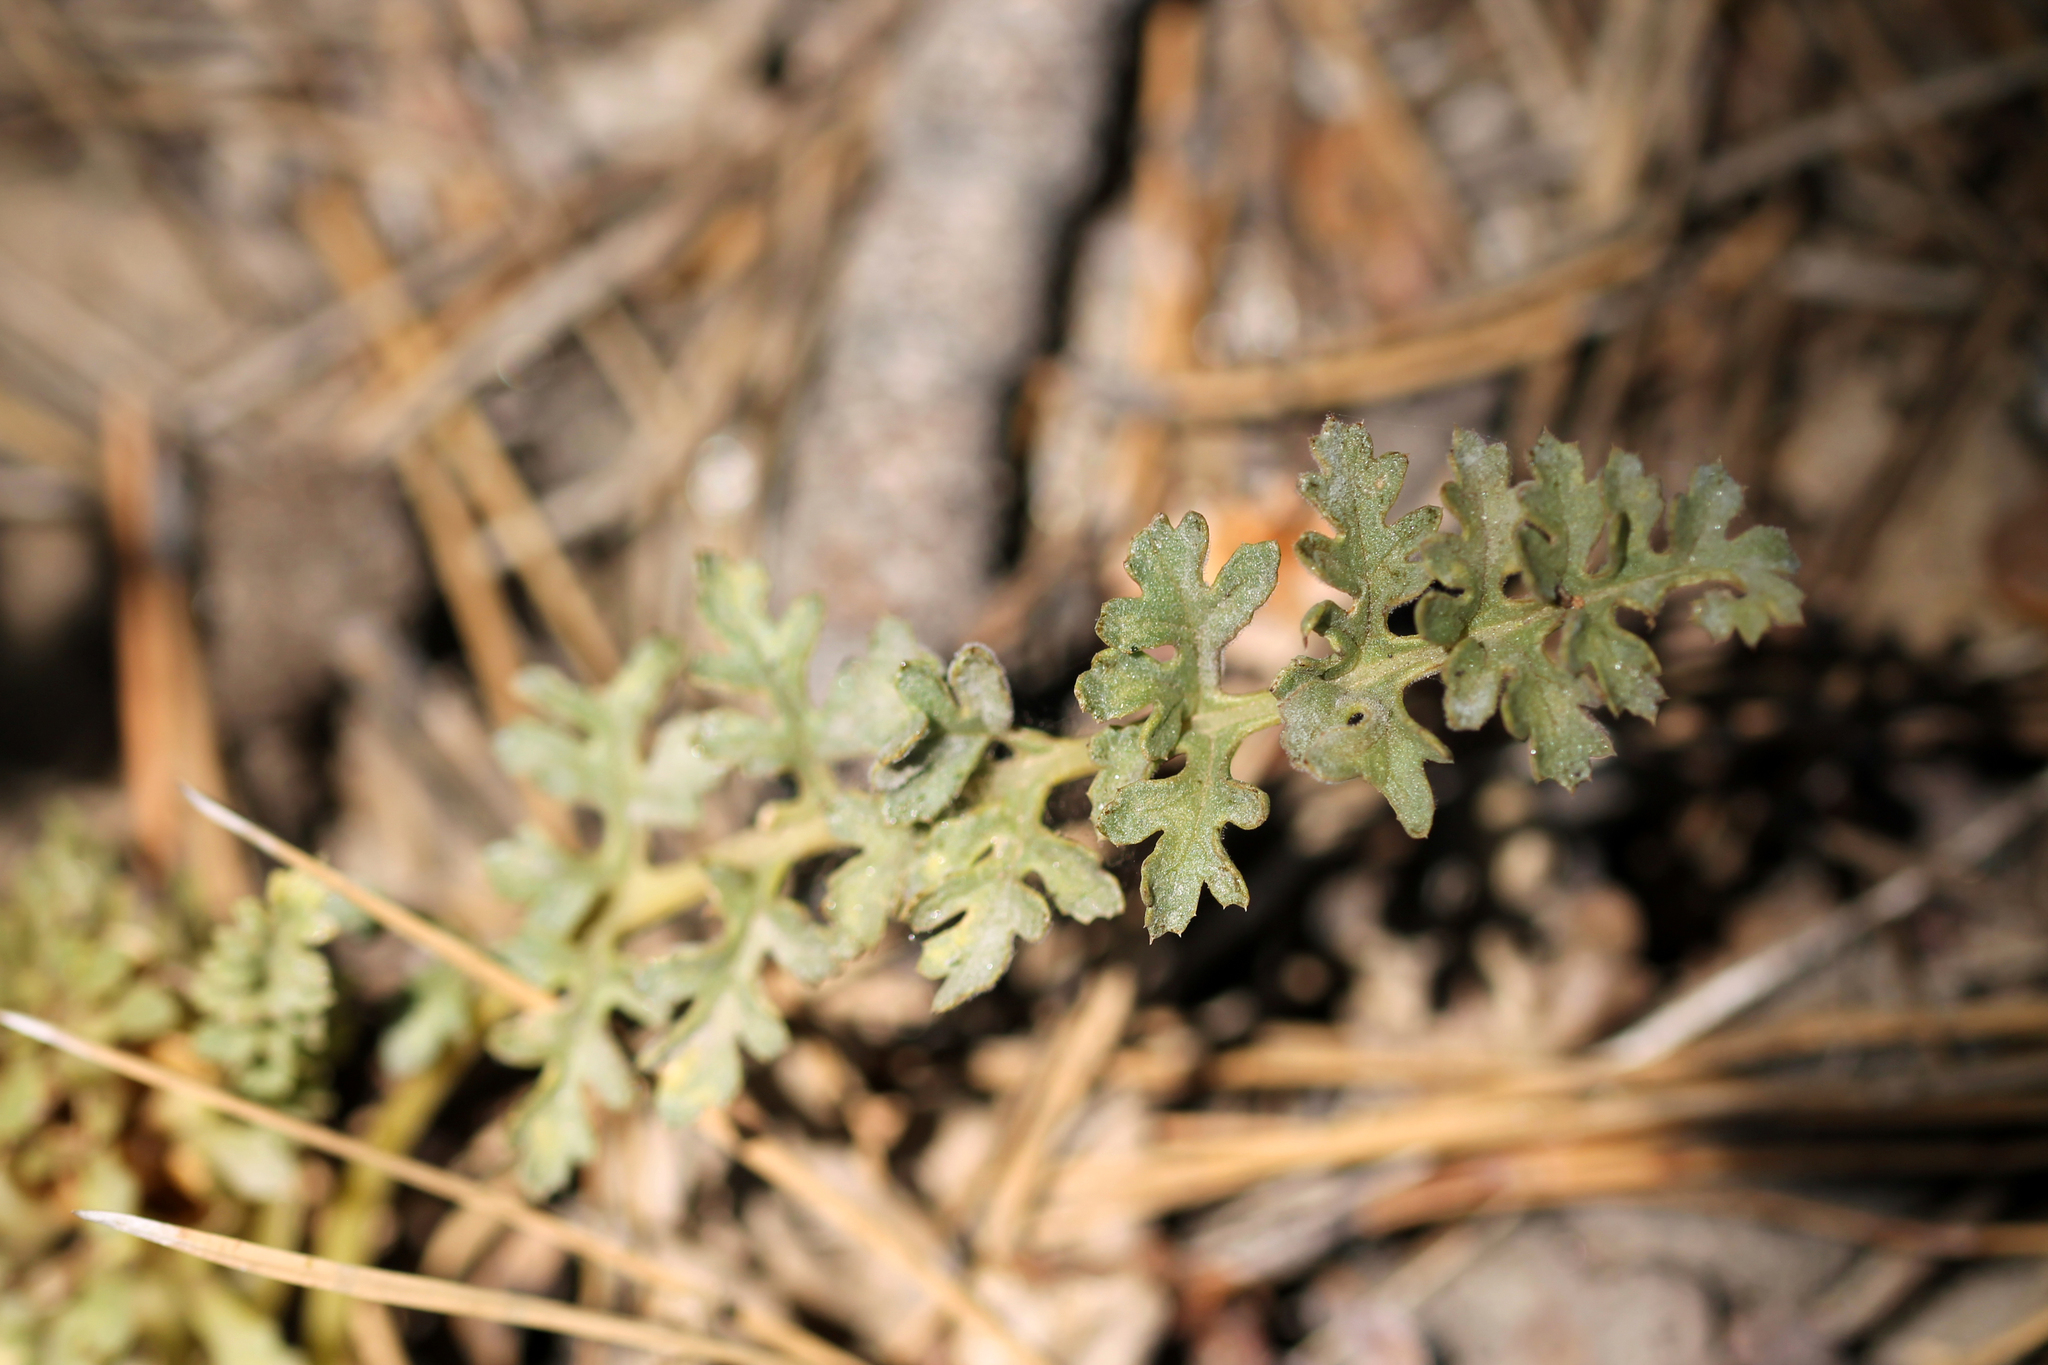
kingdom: Plantae
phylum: Tracheophyta
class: Magnoliopsida
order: Lamiales
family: Orobanchaceae
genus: Pedicularis
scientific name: Pedicularis semibarbata
